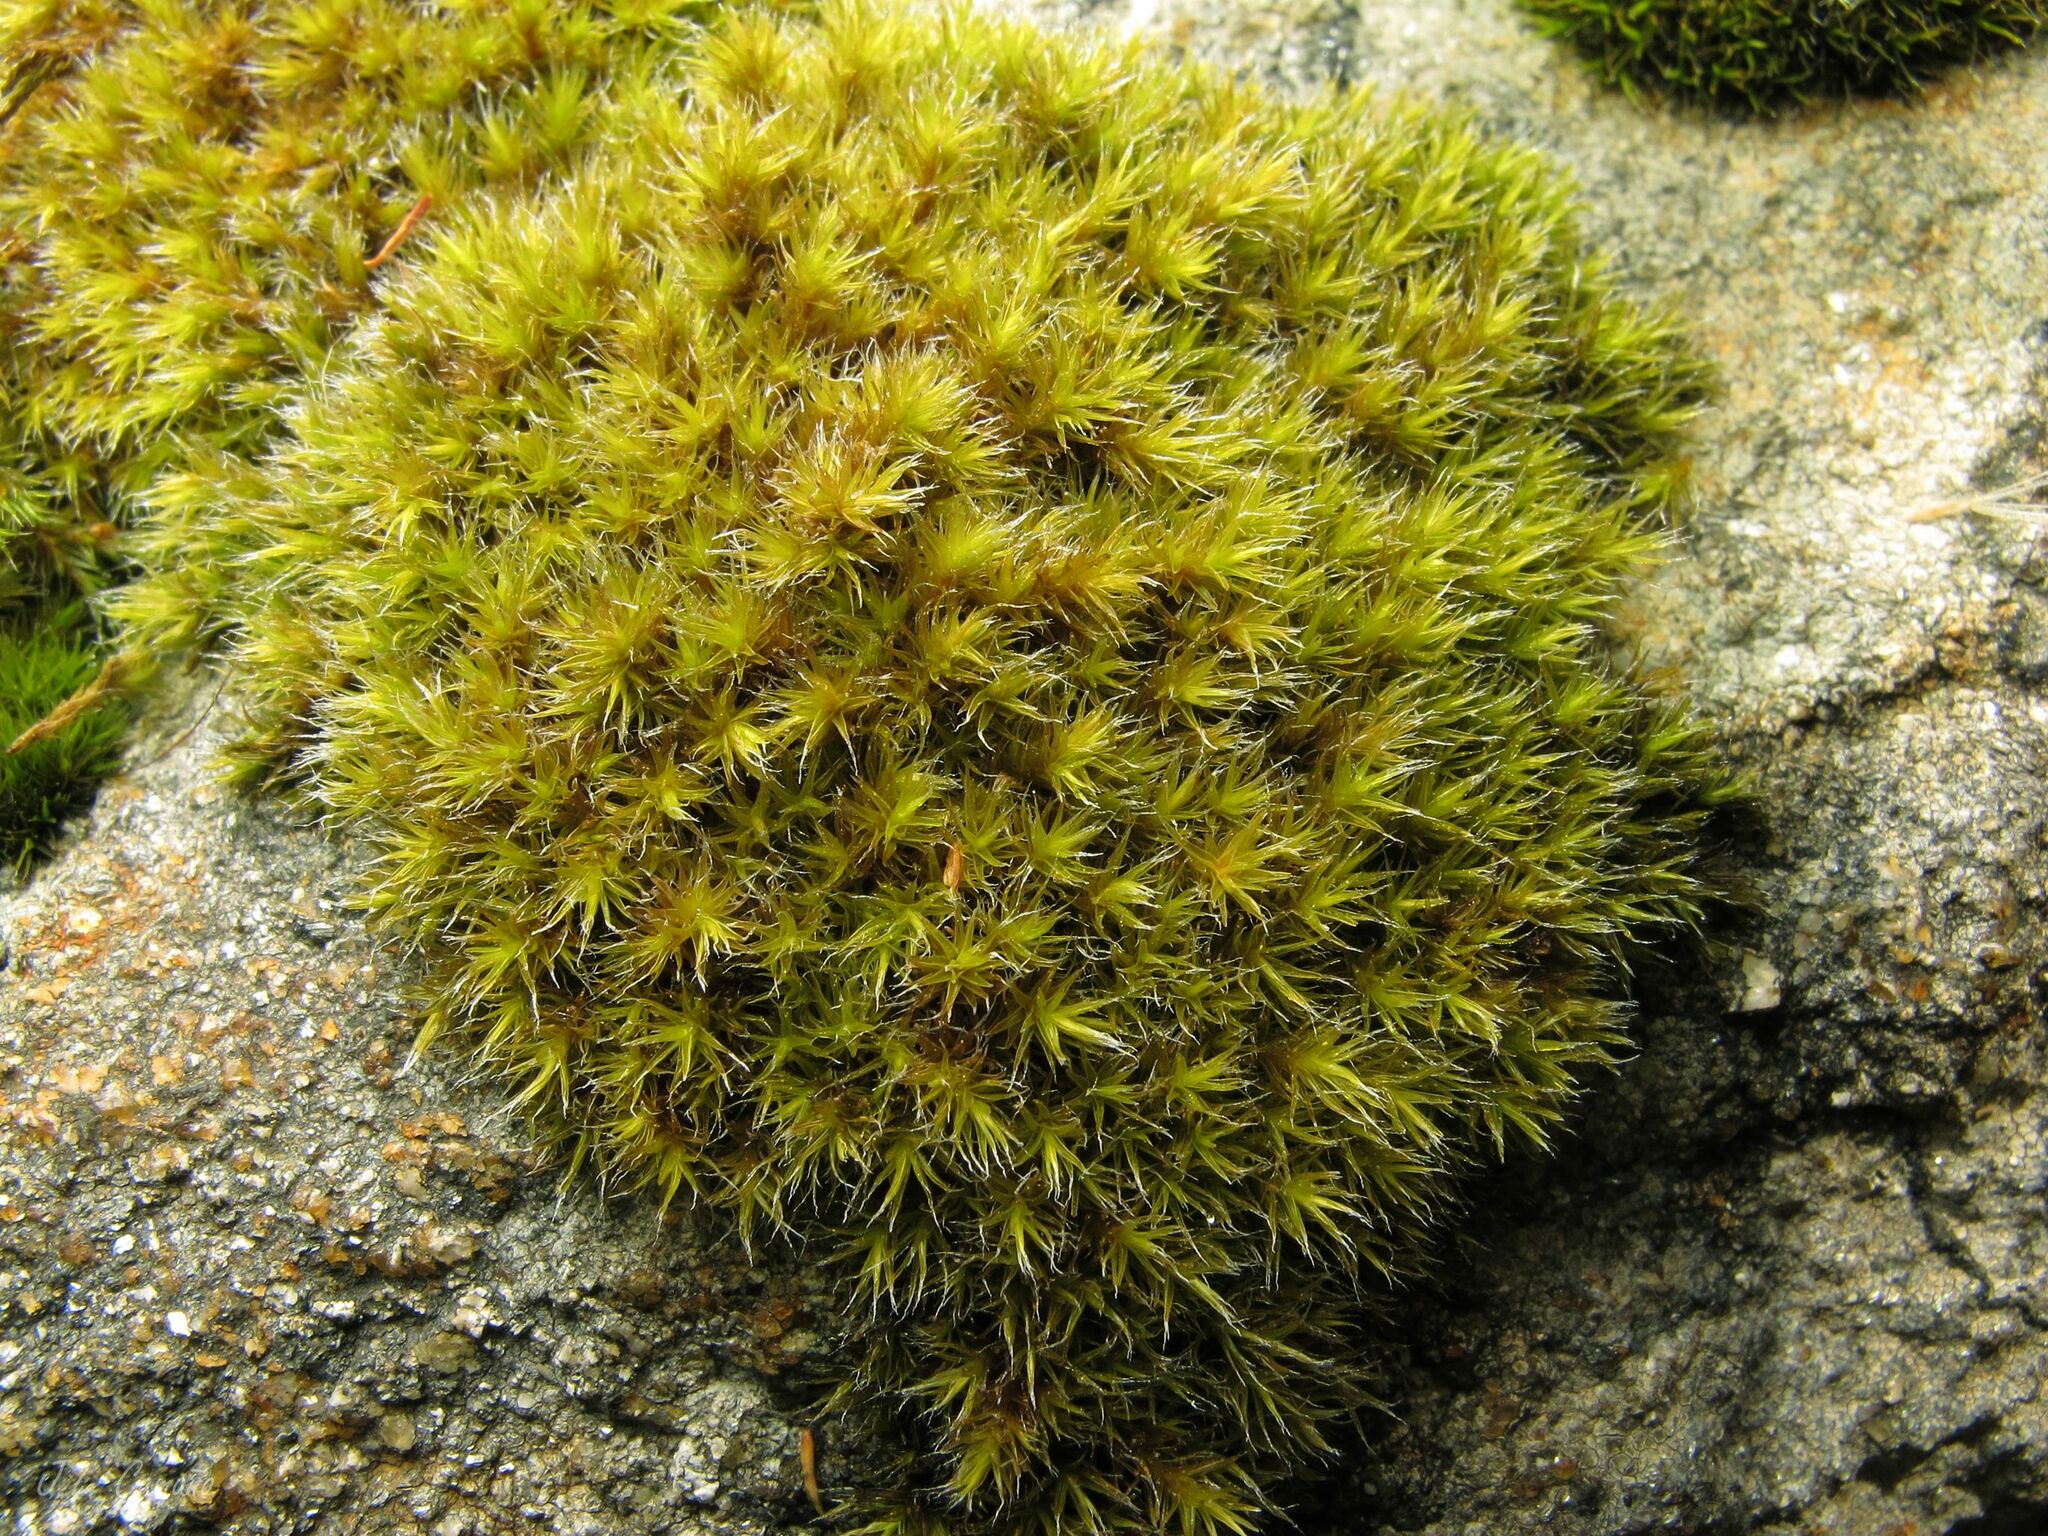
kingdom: Plantae
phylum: Bryophyta
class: Bryopsida
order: Grimmiales
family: Grimmiaceae
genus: Bucklandiella
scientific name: Bucklandiella heterosticha
